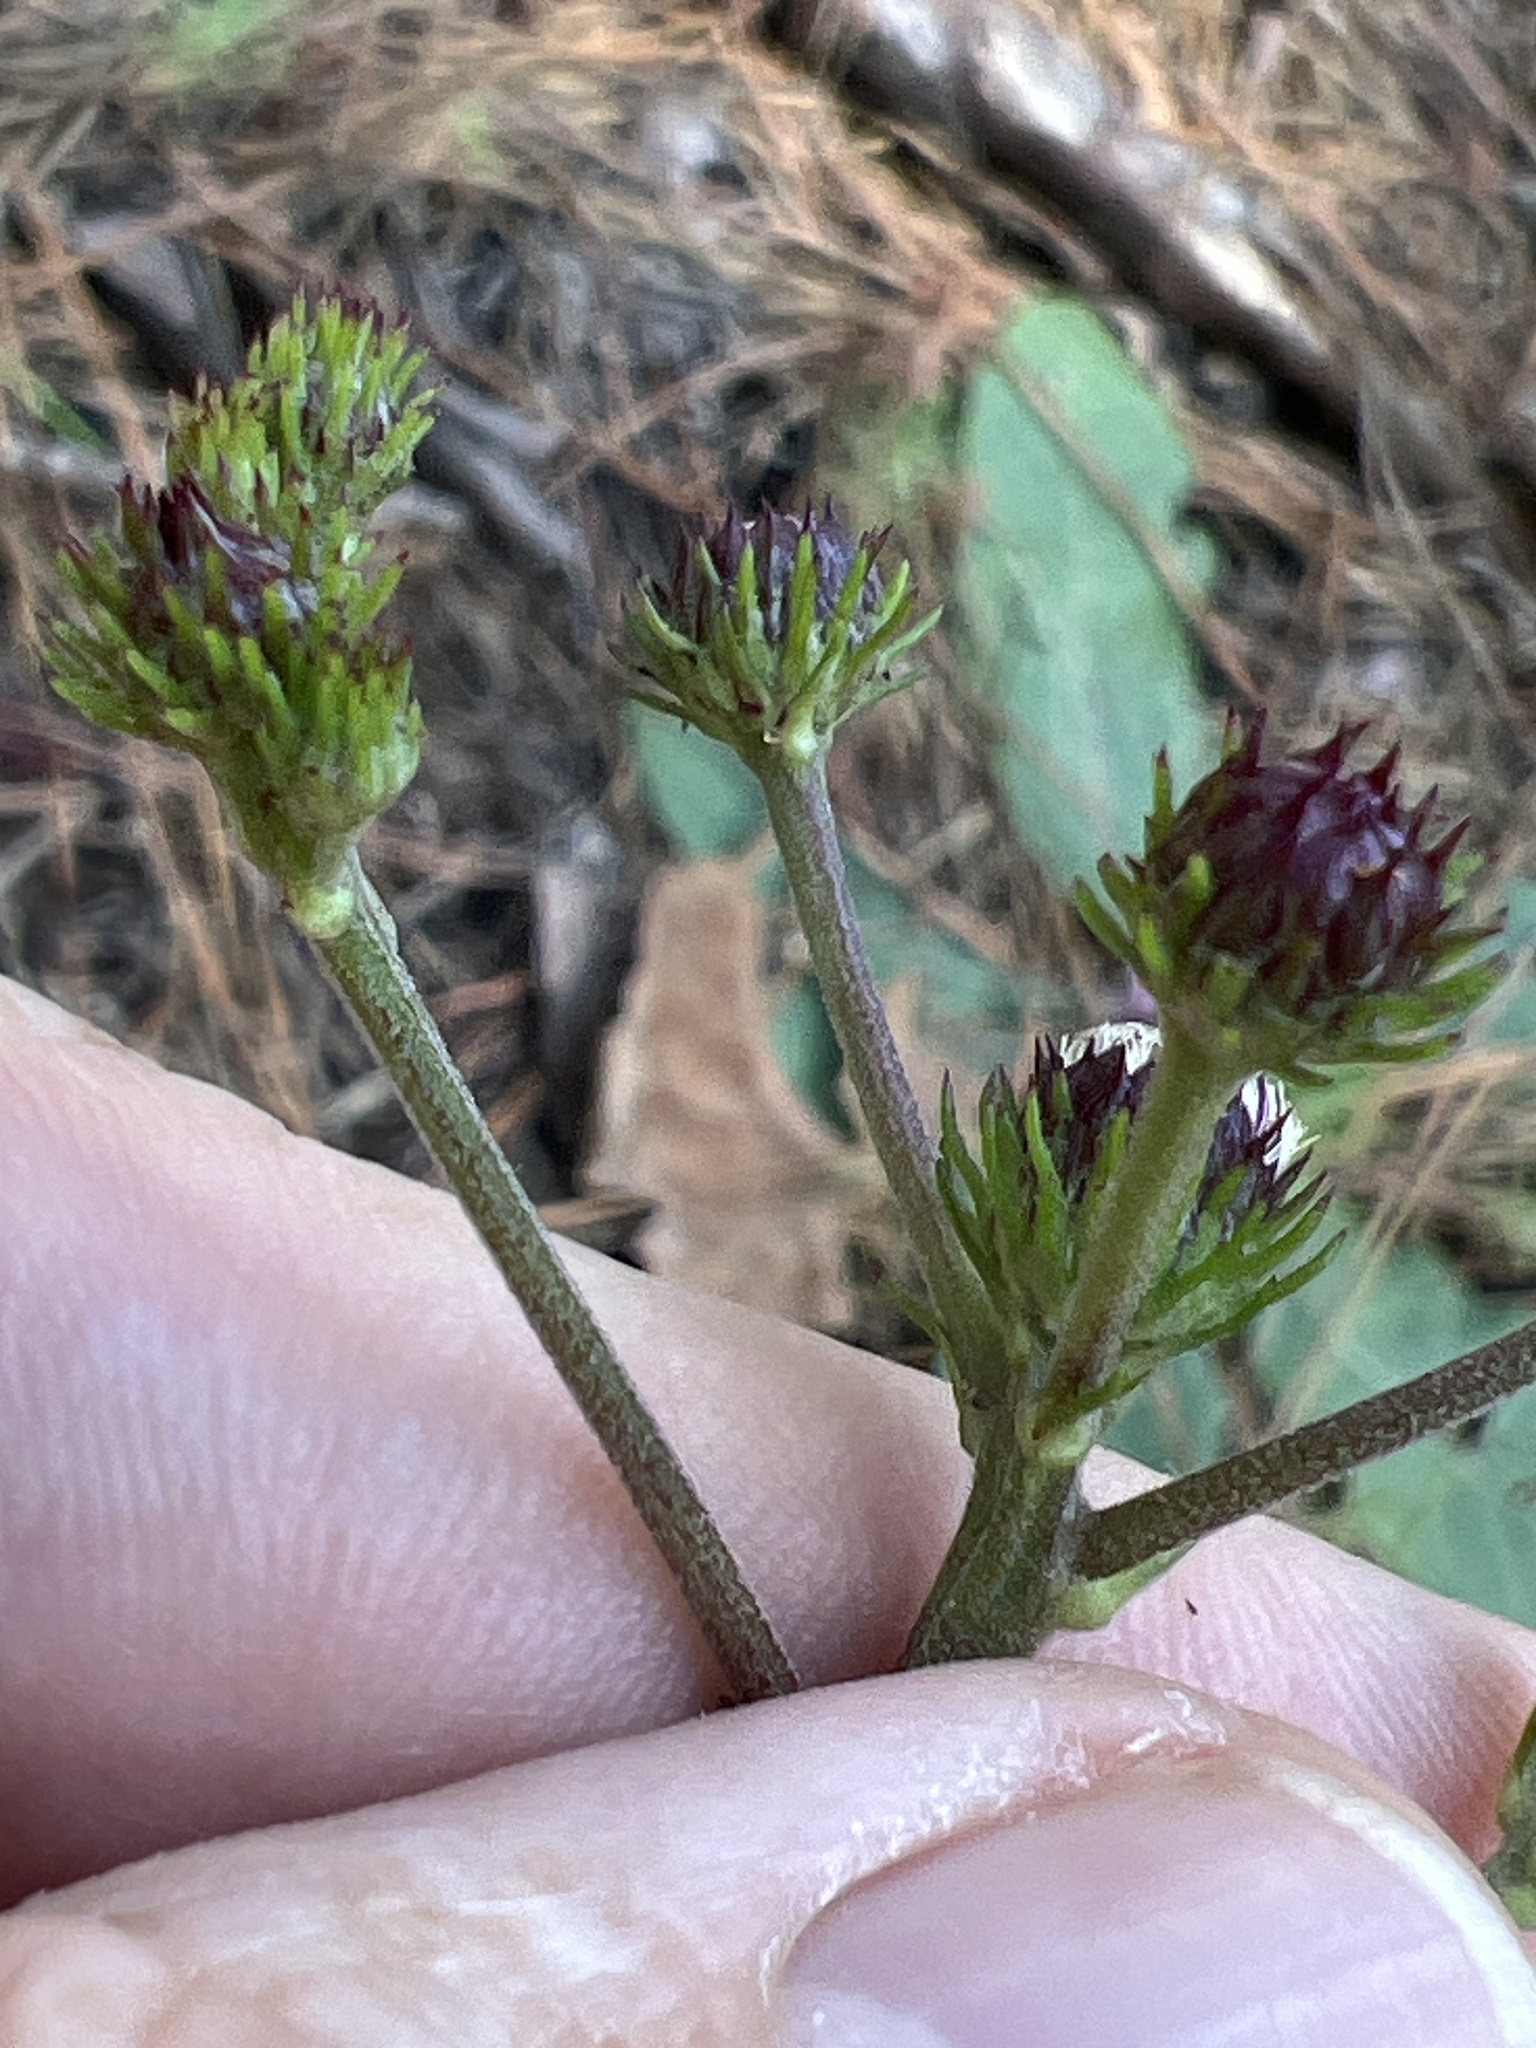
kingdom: Plantae
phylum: Tracheophyta
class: Magnoliopsida
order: Asterales
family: Asteraceae
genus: Vernonia
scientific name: Vernonia acaulis
